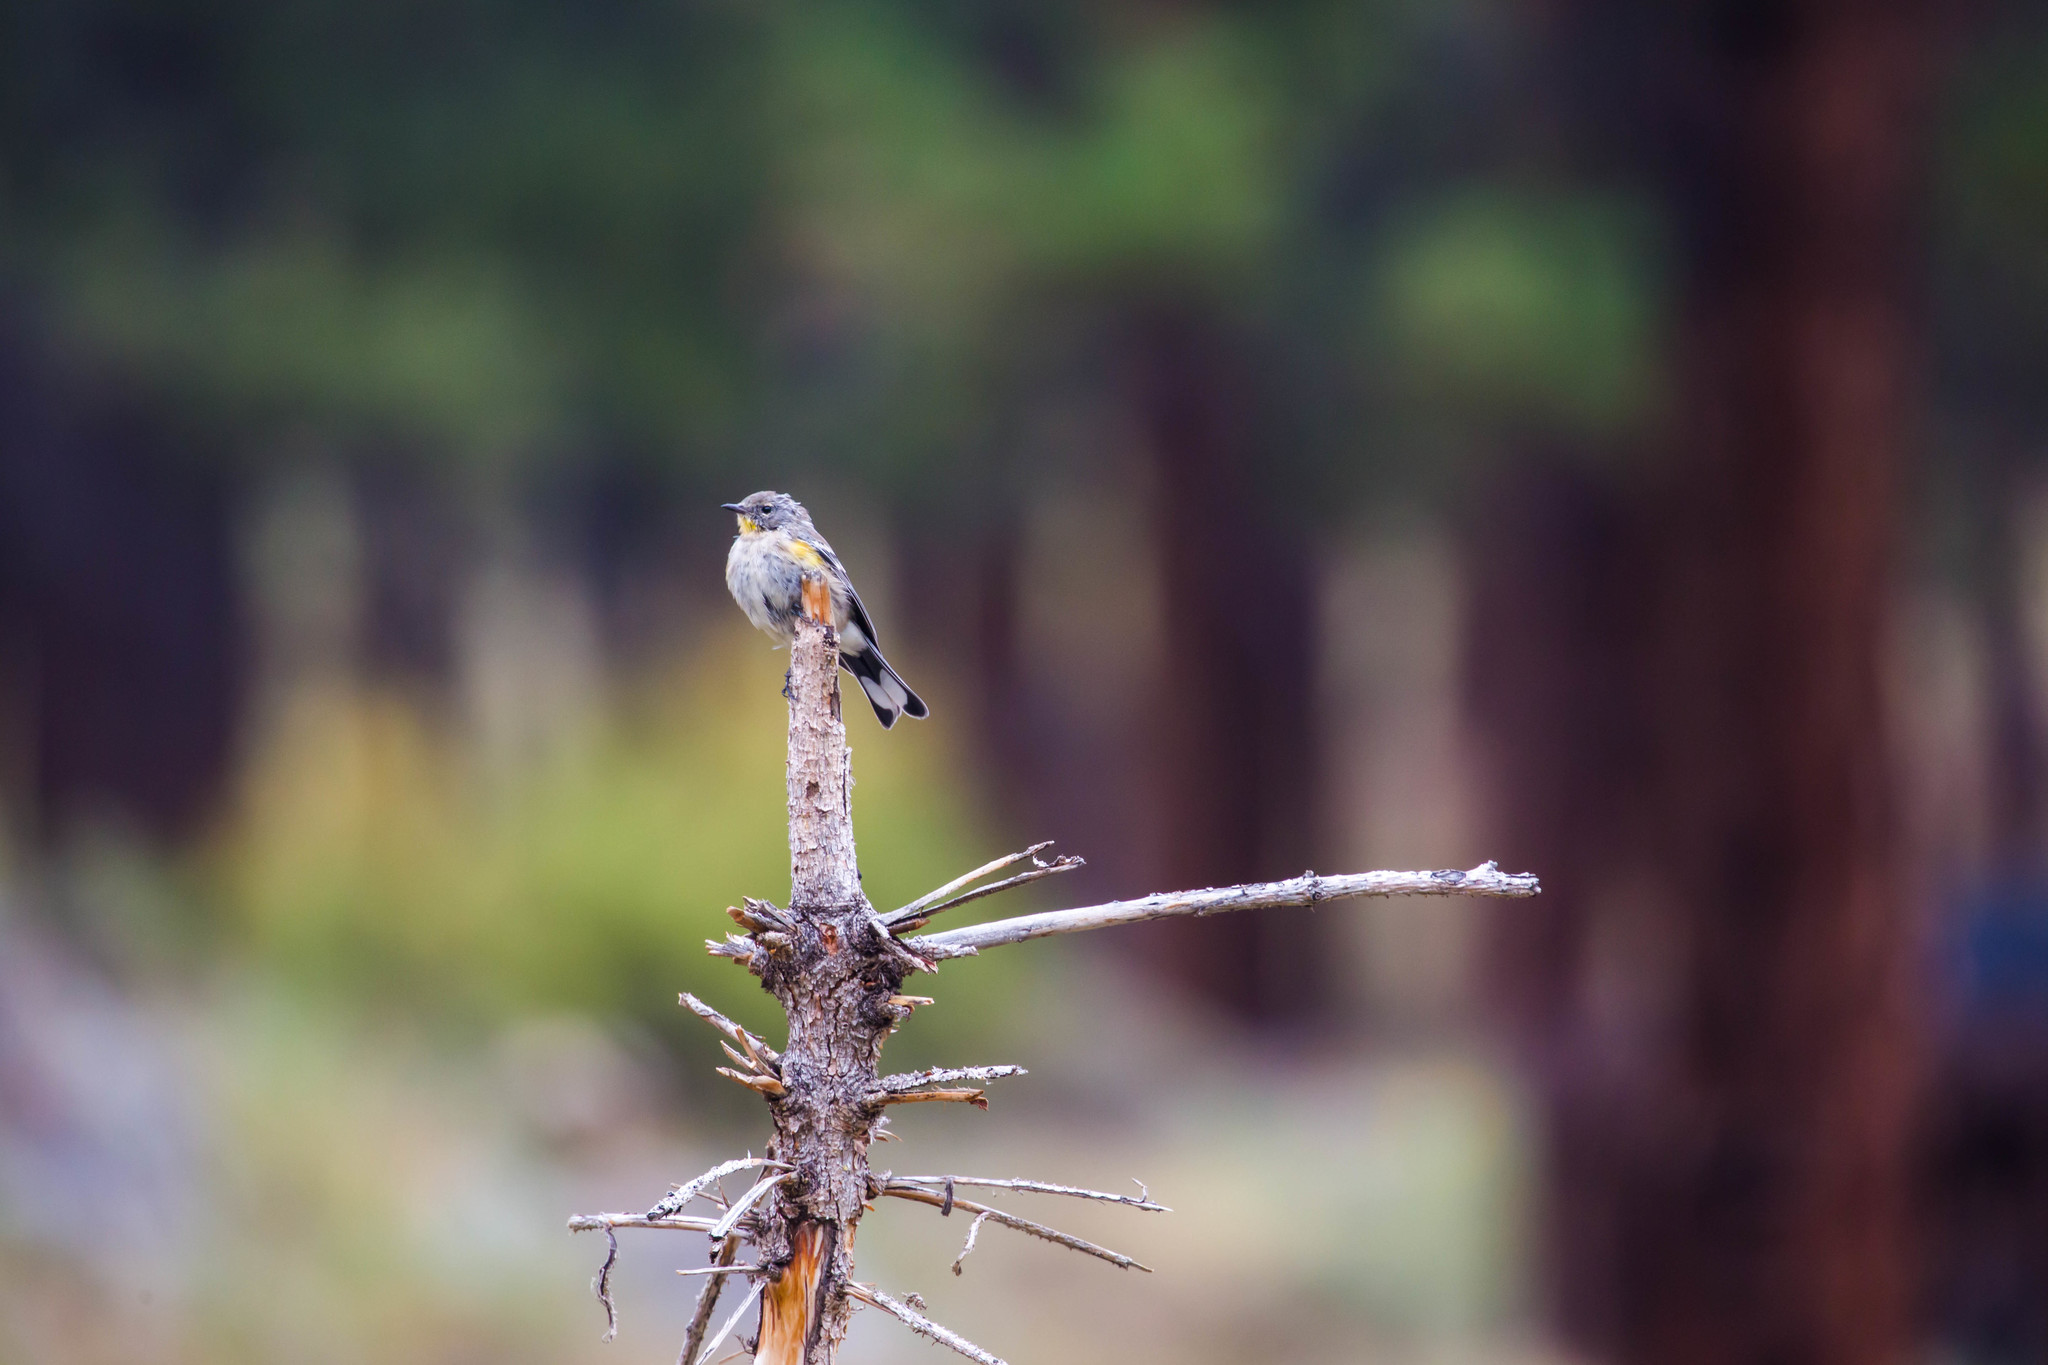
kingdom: Animalia
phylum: Chordata
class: Aves
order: Passeriformes
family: Parulidae
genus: Setophaga
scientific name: Setophaga coronata
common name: Myrtle warbler
